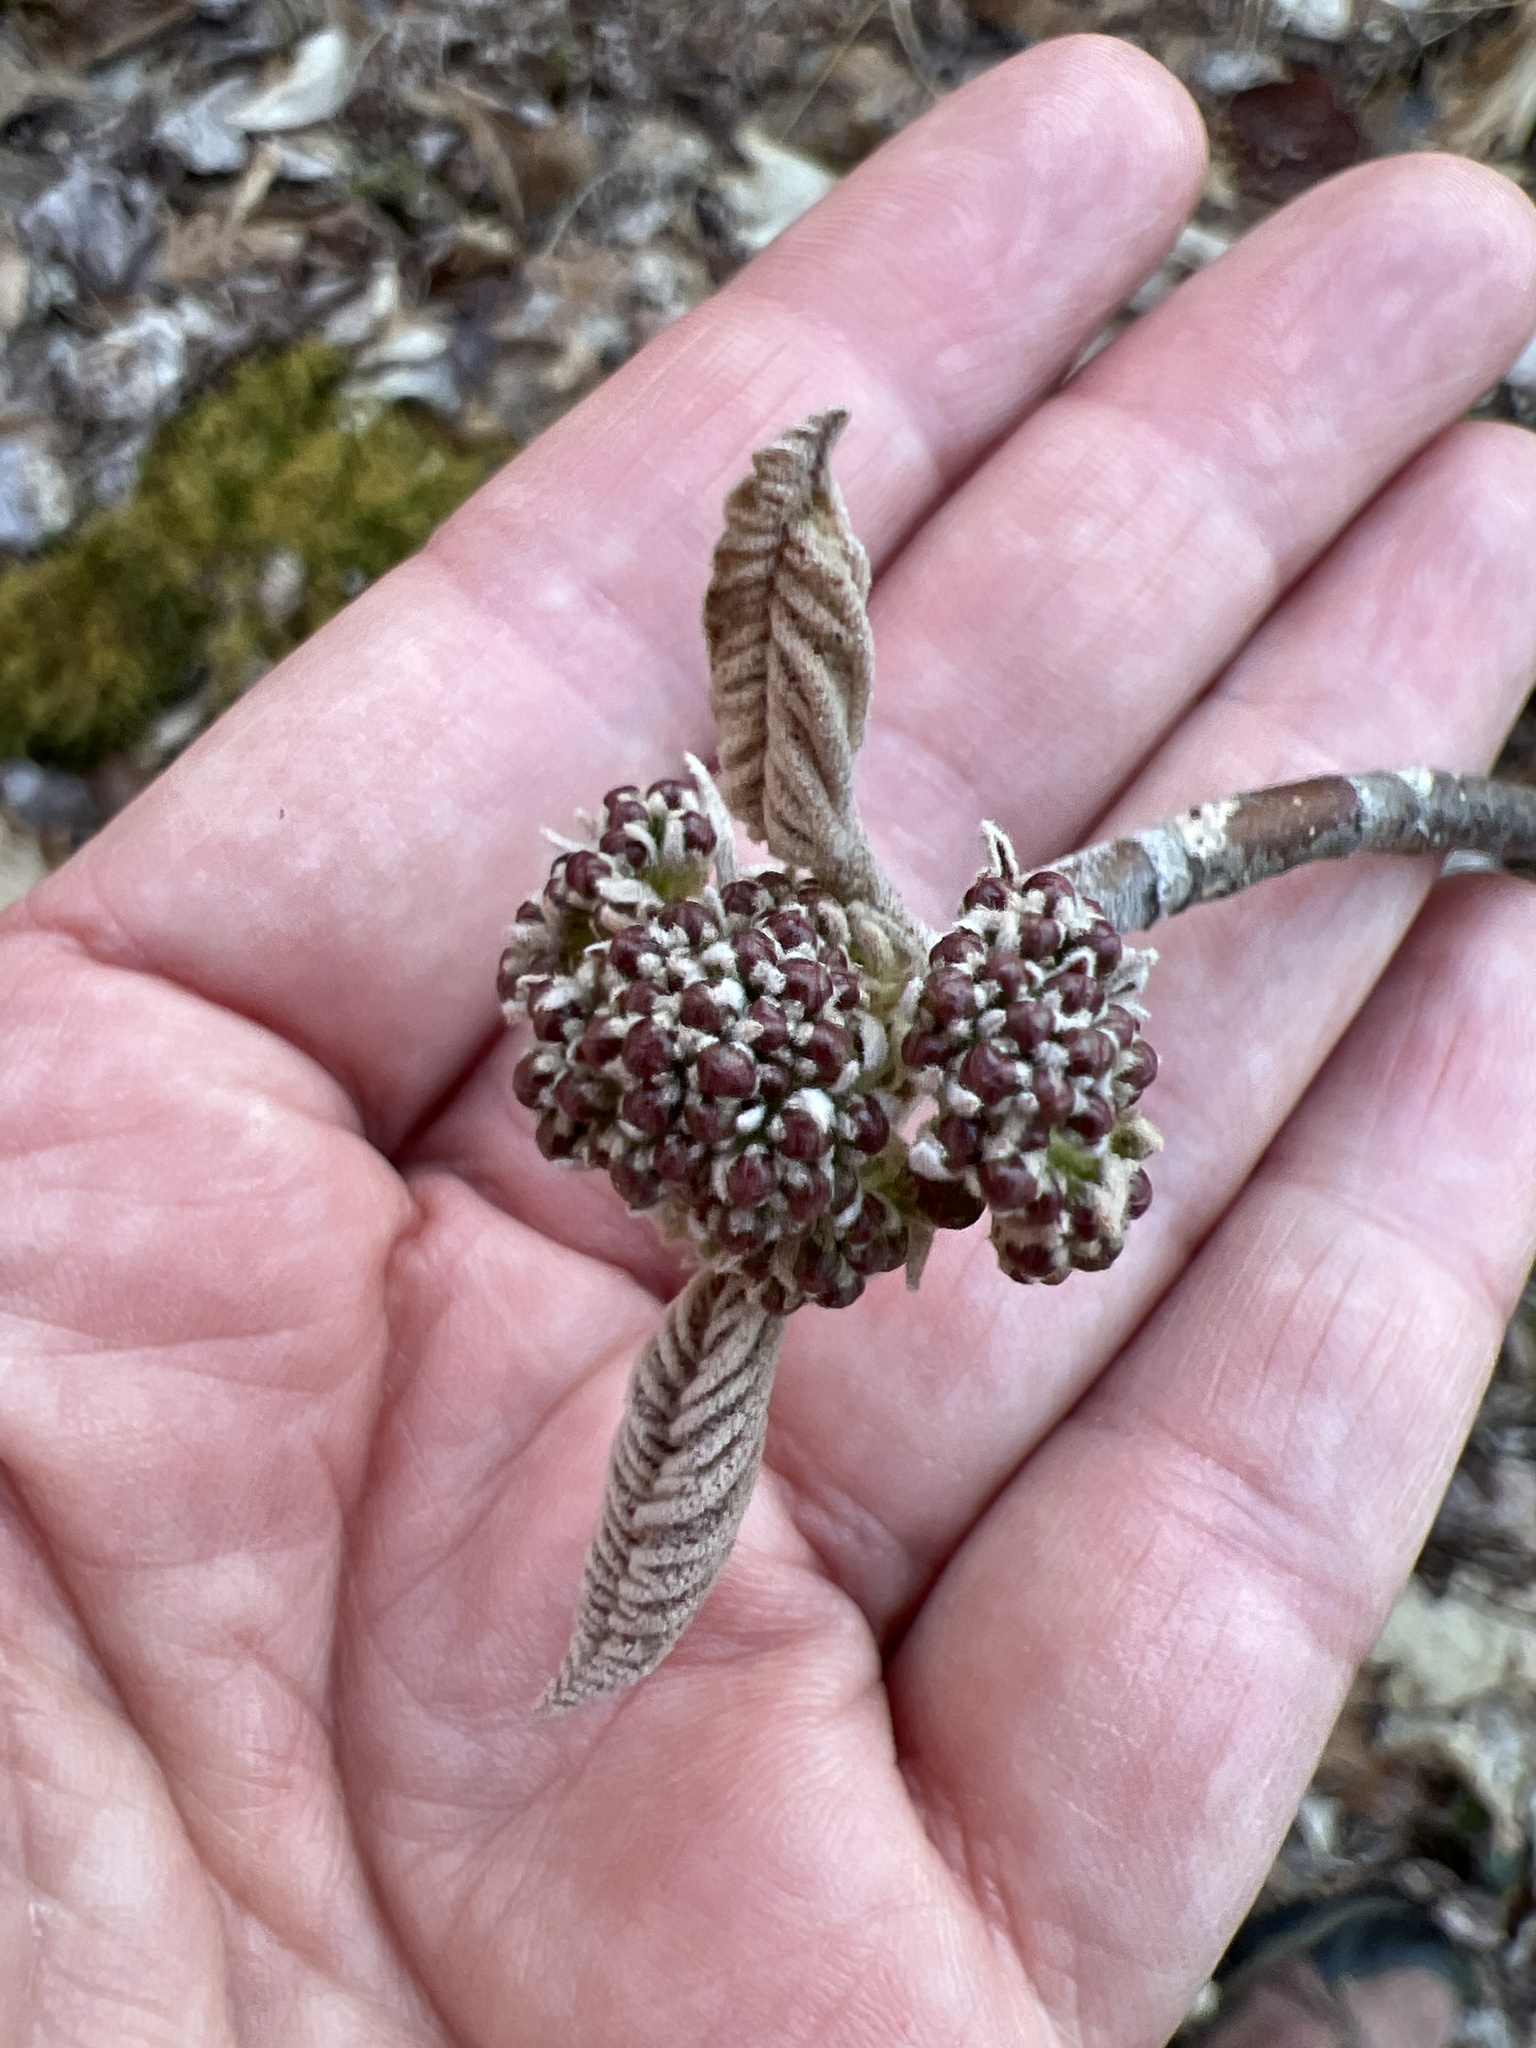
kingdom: Plantae
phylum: Tracheophyta
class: Magnoliopsida
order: Dipsacales
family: Viburnaceae
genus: Viburnum
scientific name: Viburnum lantanoides
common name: Hobblebush
